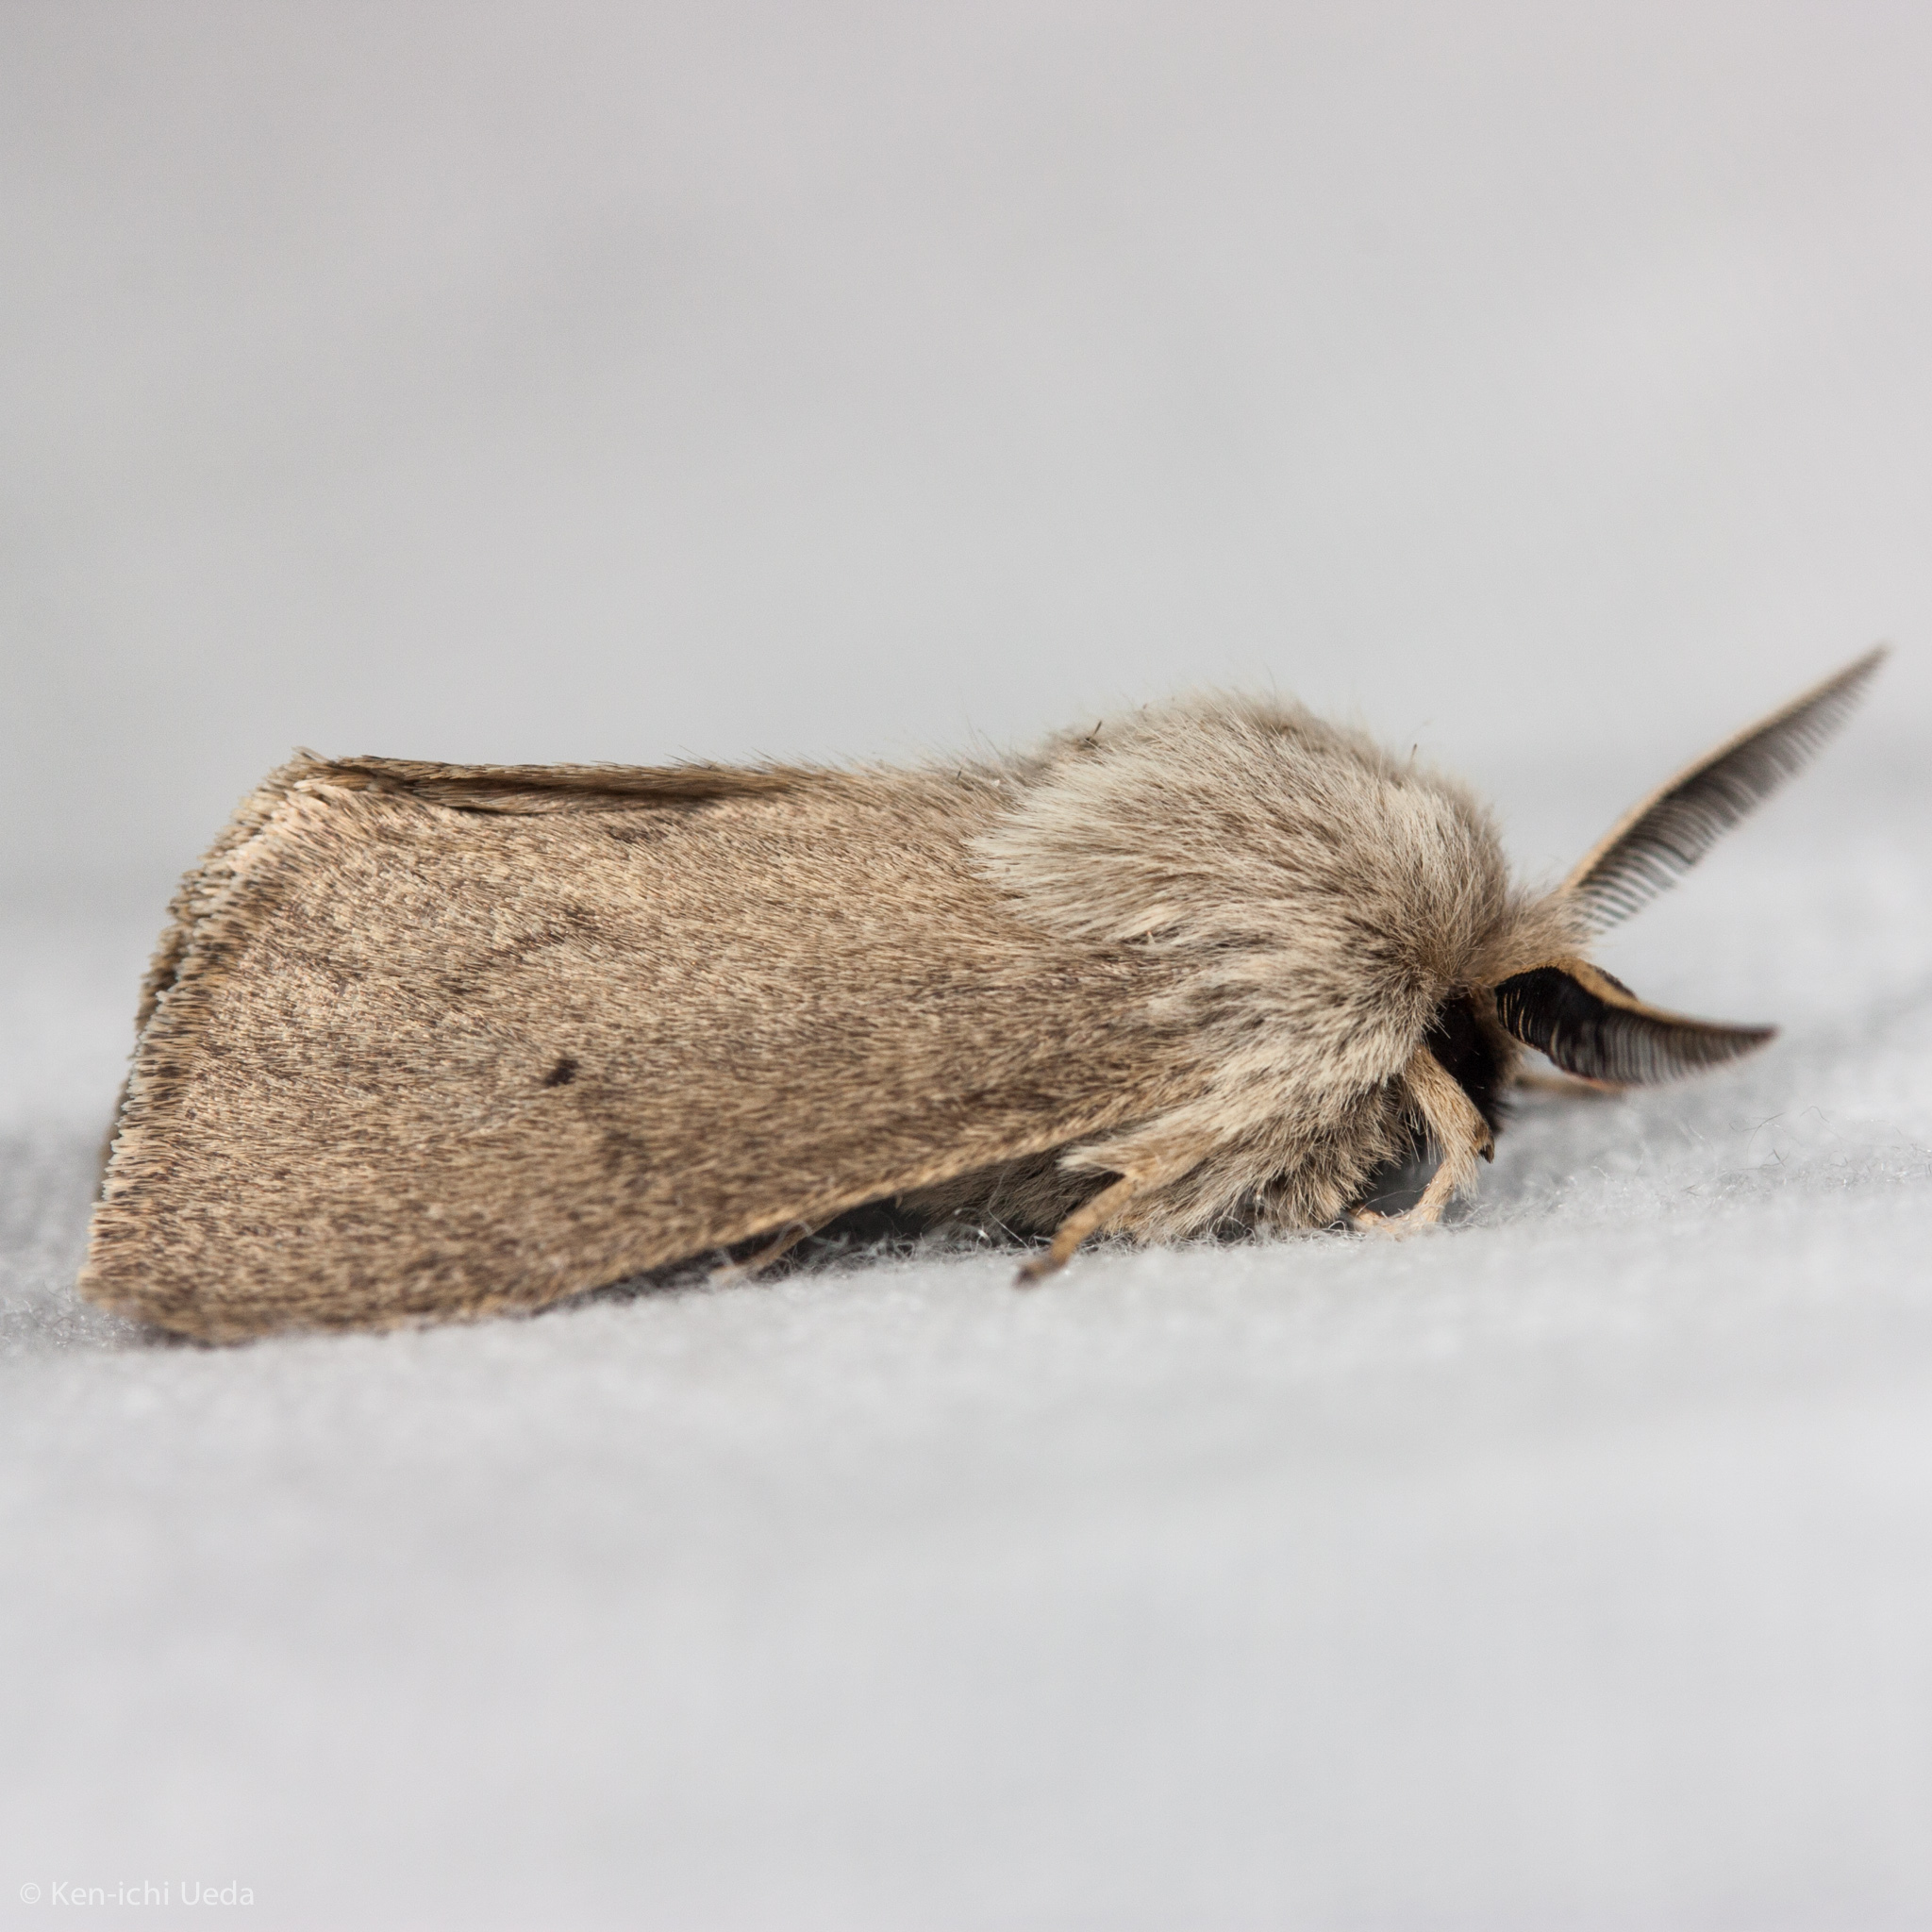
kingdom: Animalia
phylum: Arthropoda
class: Insecta
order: Lepidoptera
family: Erebidae
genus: Spilosoma
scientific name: Spilosoma vagans
